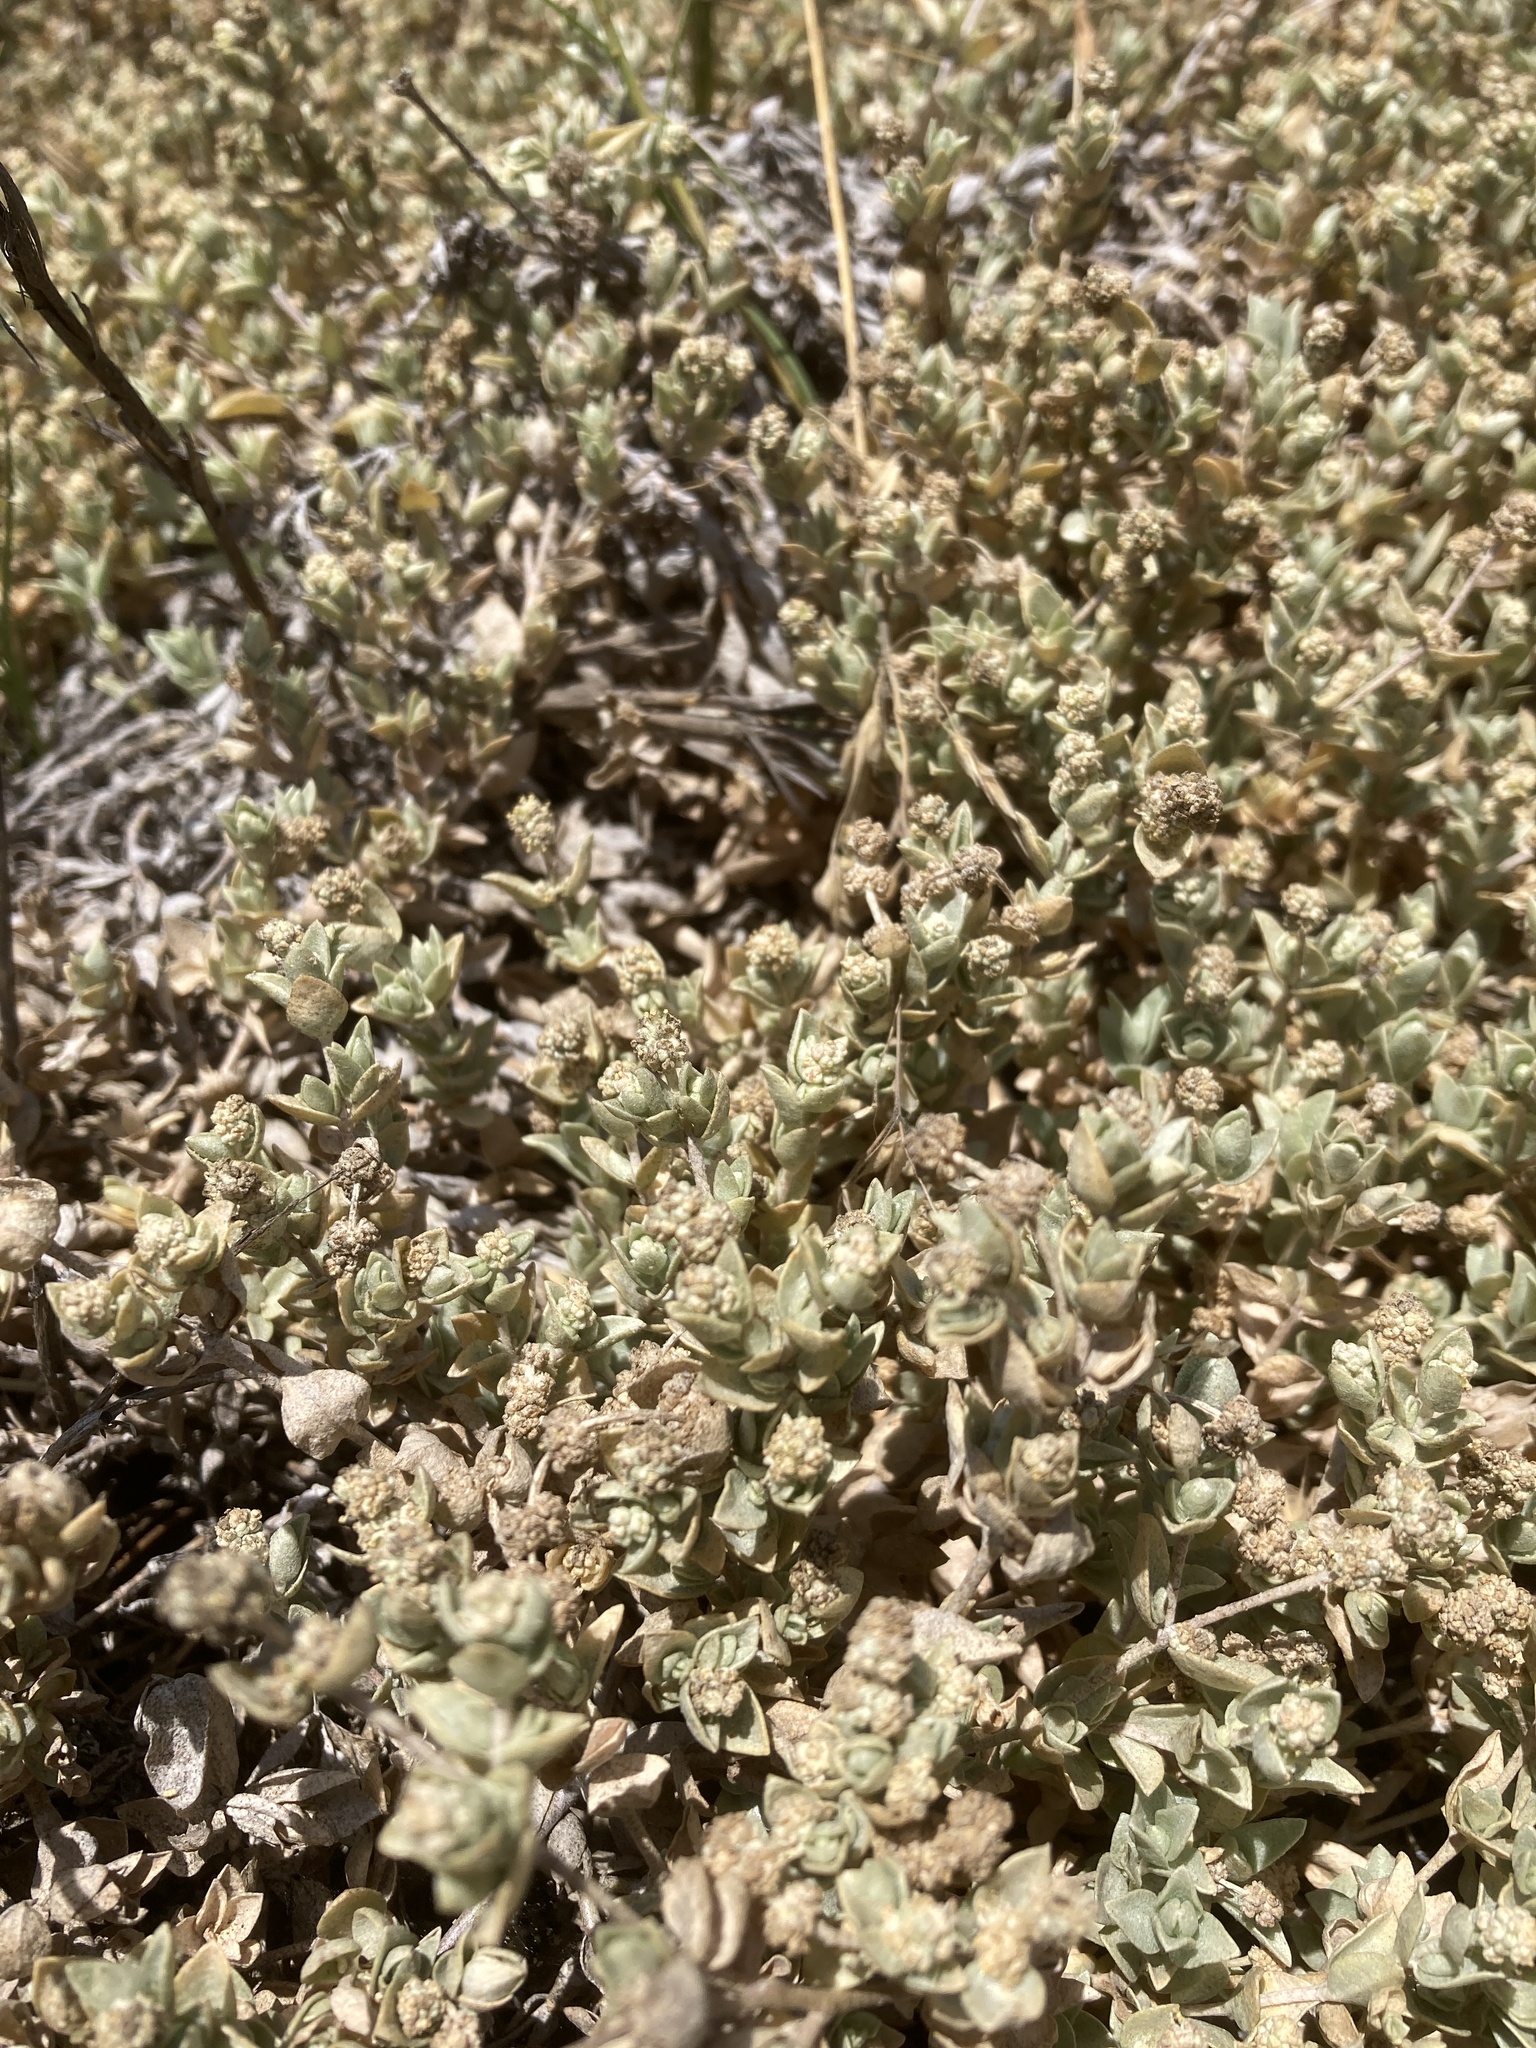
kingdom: Plantae
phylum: Tracheophyta
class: Magnoliopsida
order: Caryophyllales
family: Amaranthaceae
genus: Atriplex
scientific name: Atriplex watsonii
